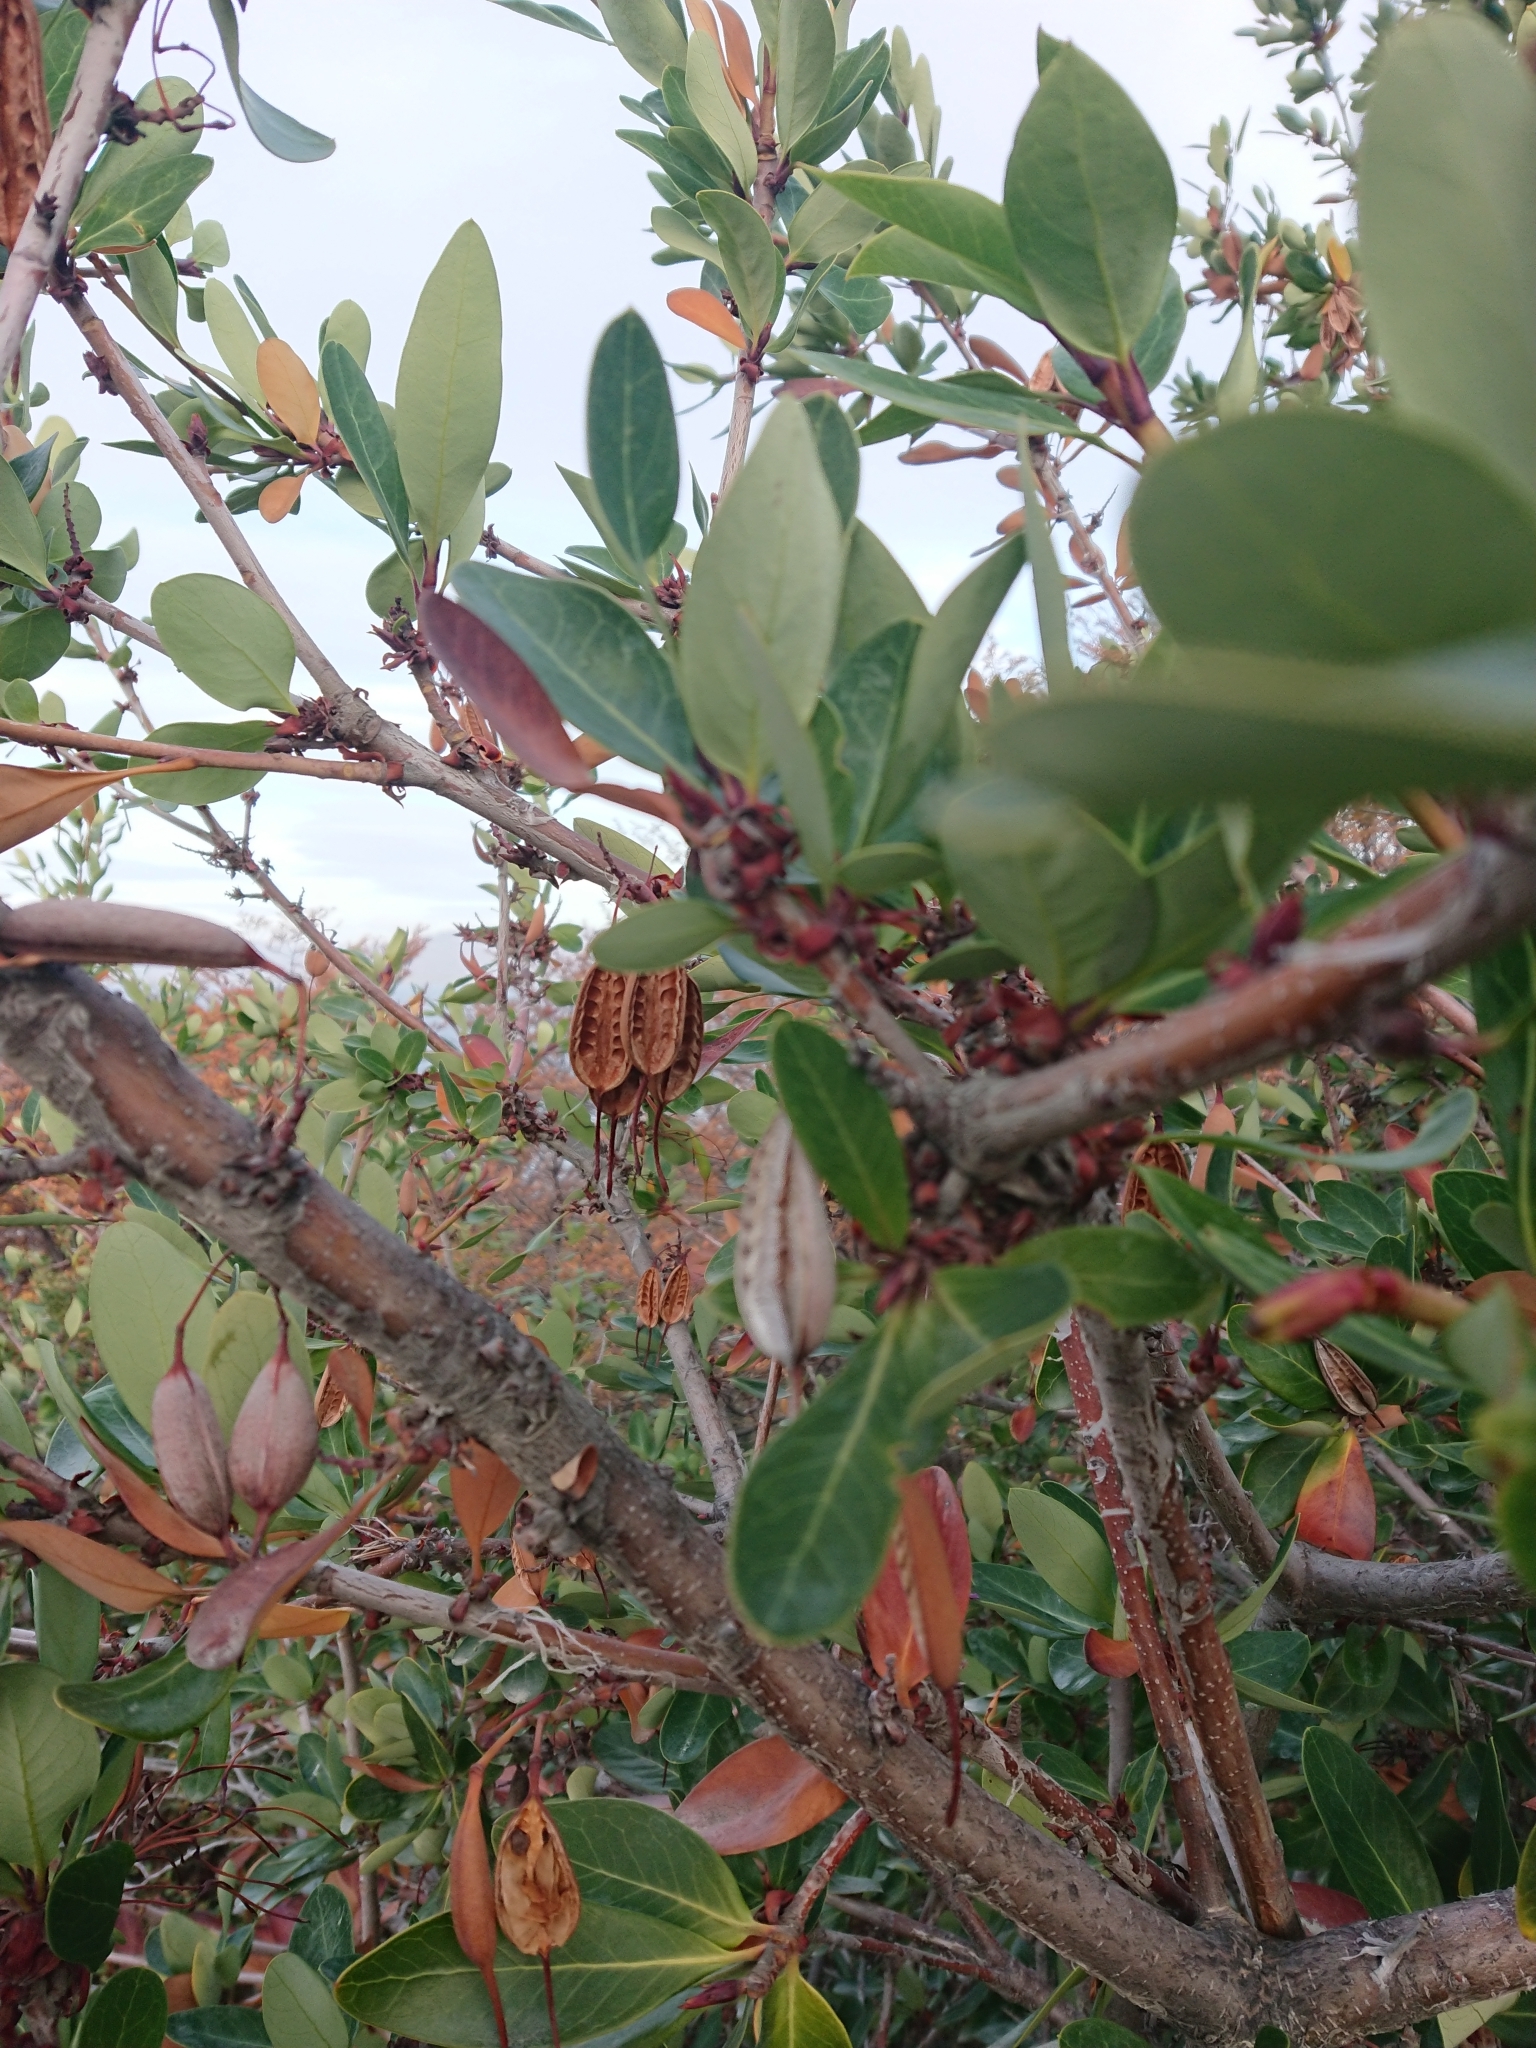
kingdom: Plantae
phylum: Tracheophyta
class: Magnoliopsida
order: Proteales
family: Proteaceae
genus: Embothrium
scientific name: Embothrium coccineum
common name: Chilean firebush
